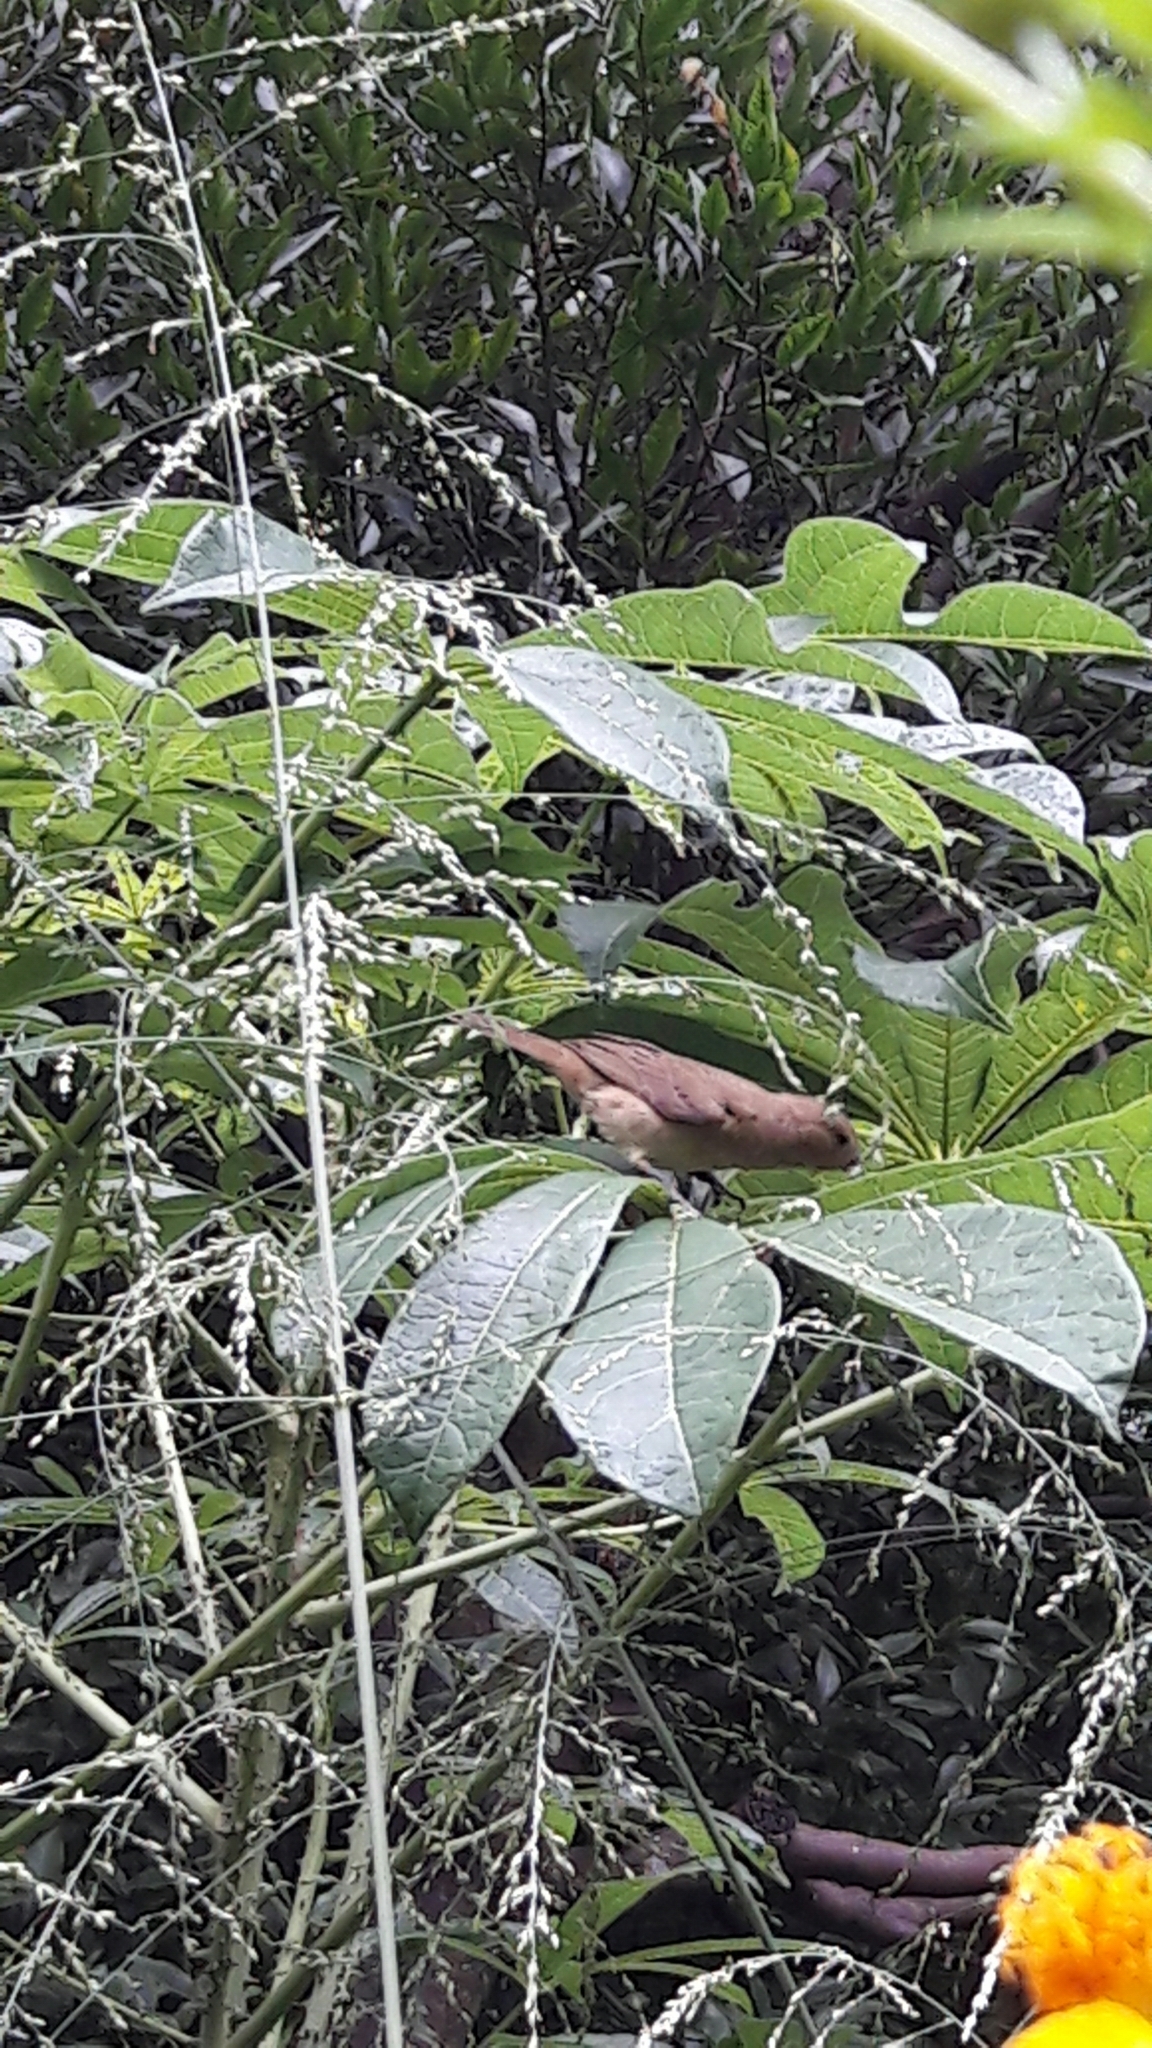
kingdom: Animalia
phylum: Chordata
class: Aves
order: Passeriformes
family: Thraupidae
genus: Sporophila
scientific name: Sporophila nigricollis
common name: Yellow-bellied seedeater
